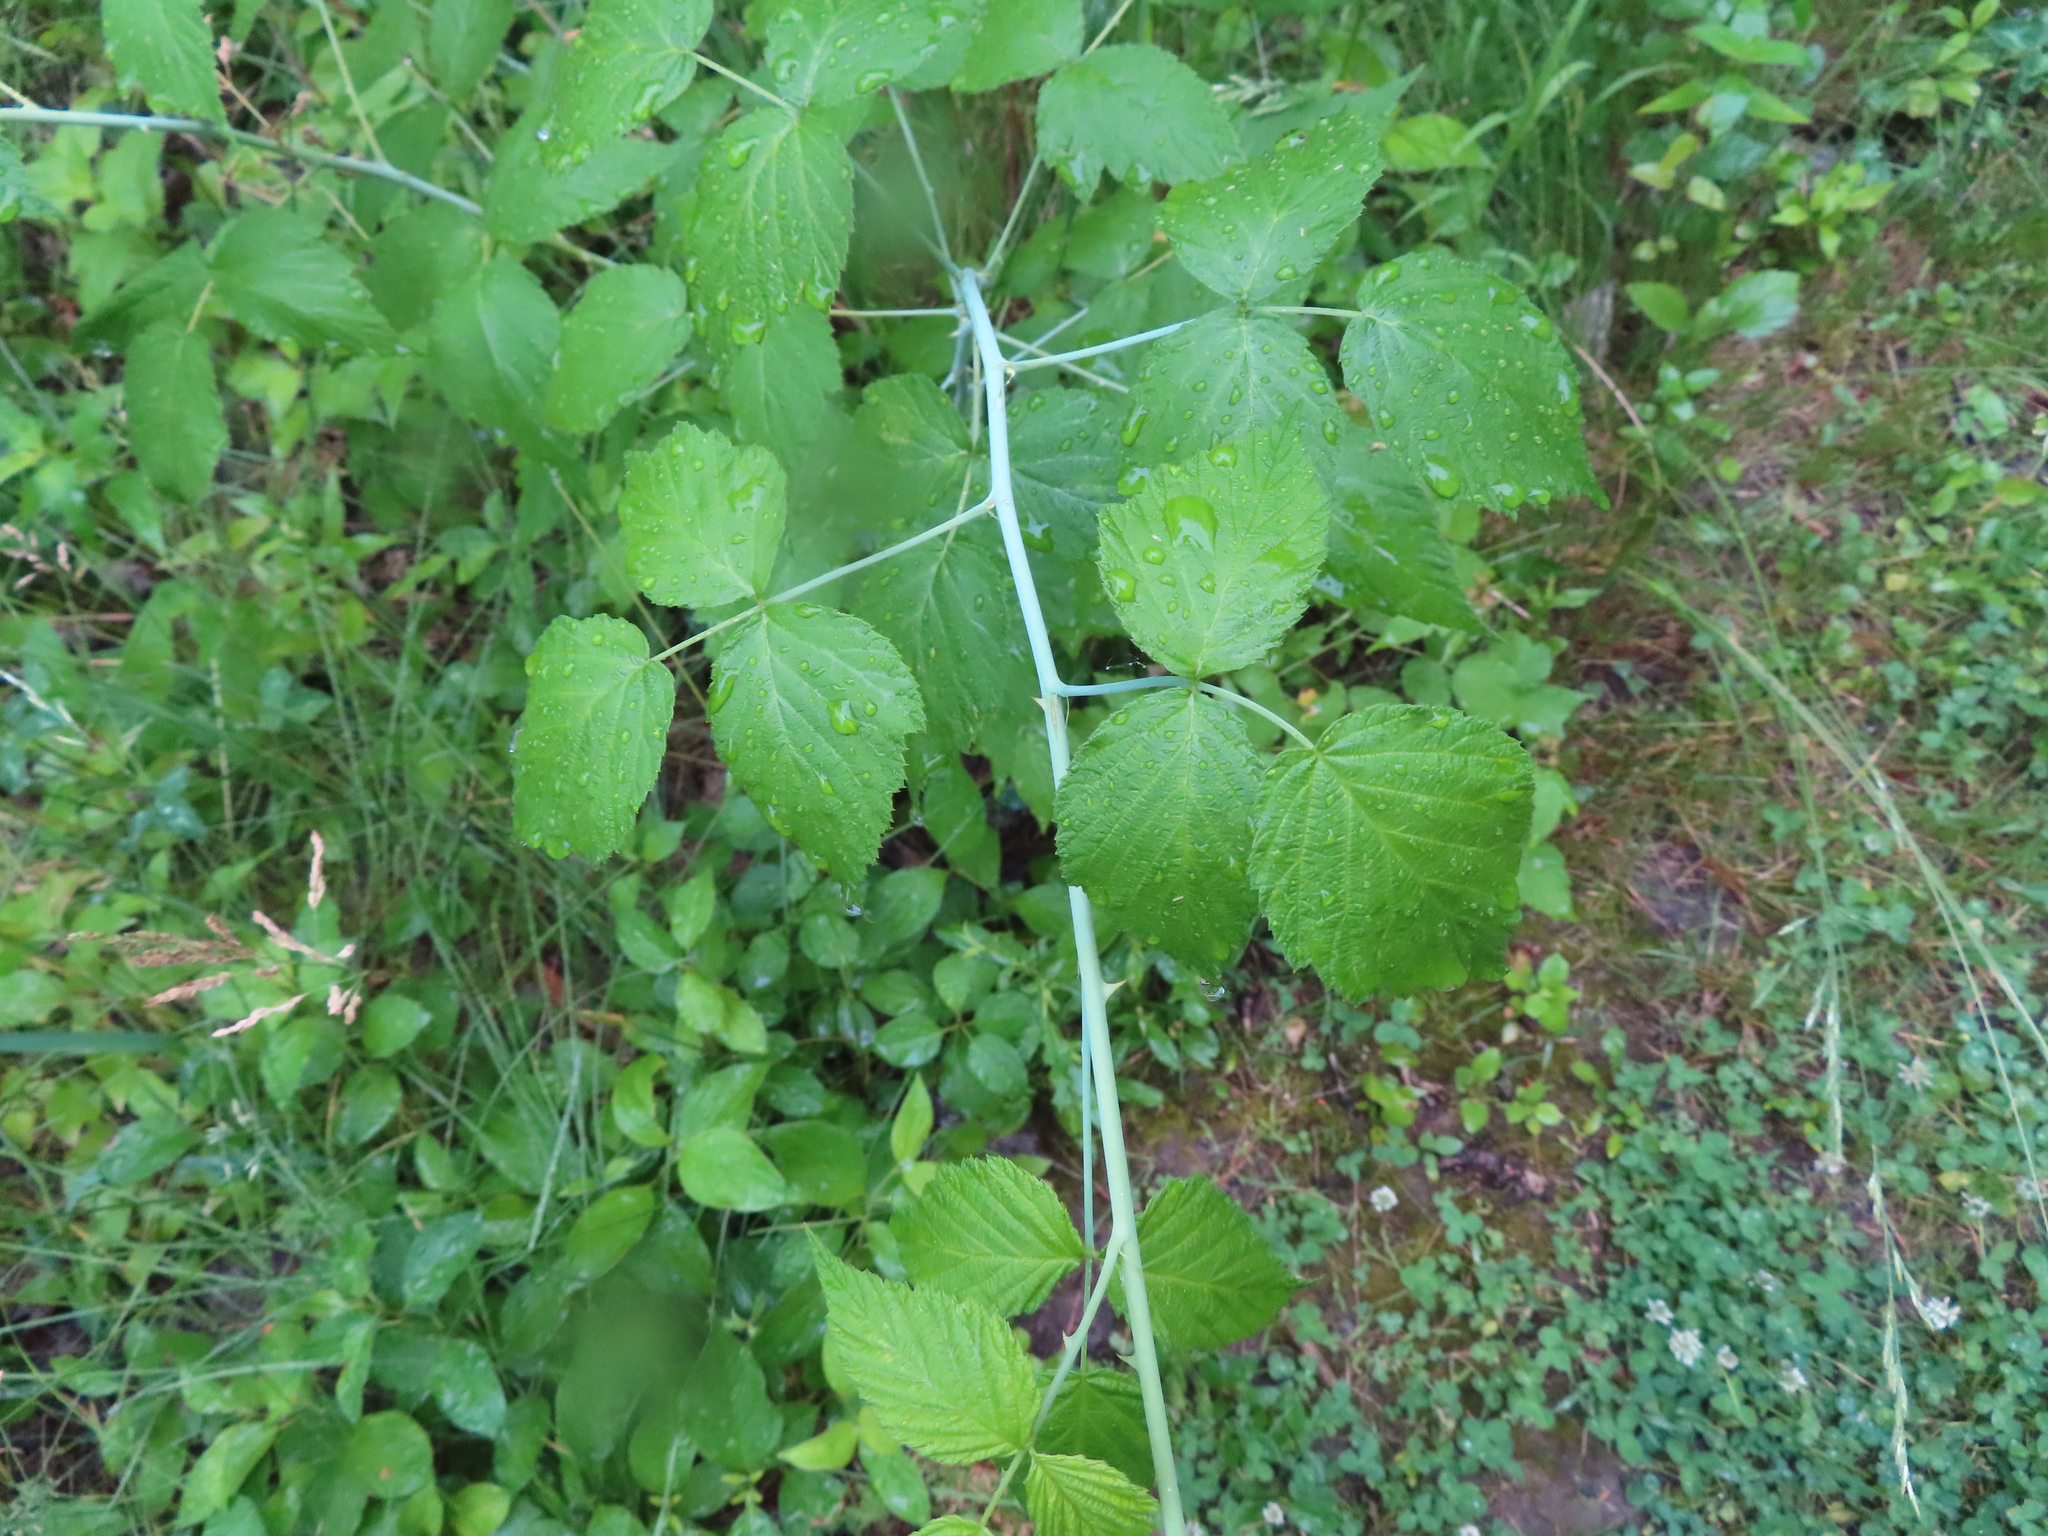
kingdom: Plantae
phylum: Tracheophyta
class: Magnoliopsida
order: Rosales
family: Rosaceae
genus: Rubus
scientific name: Rubus occidentalis
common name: Black raspberry
